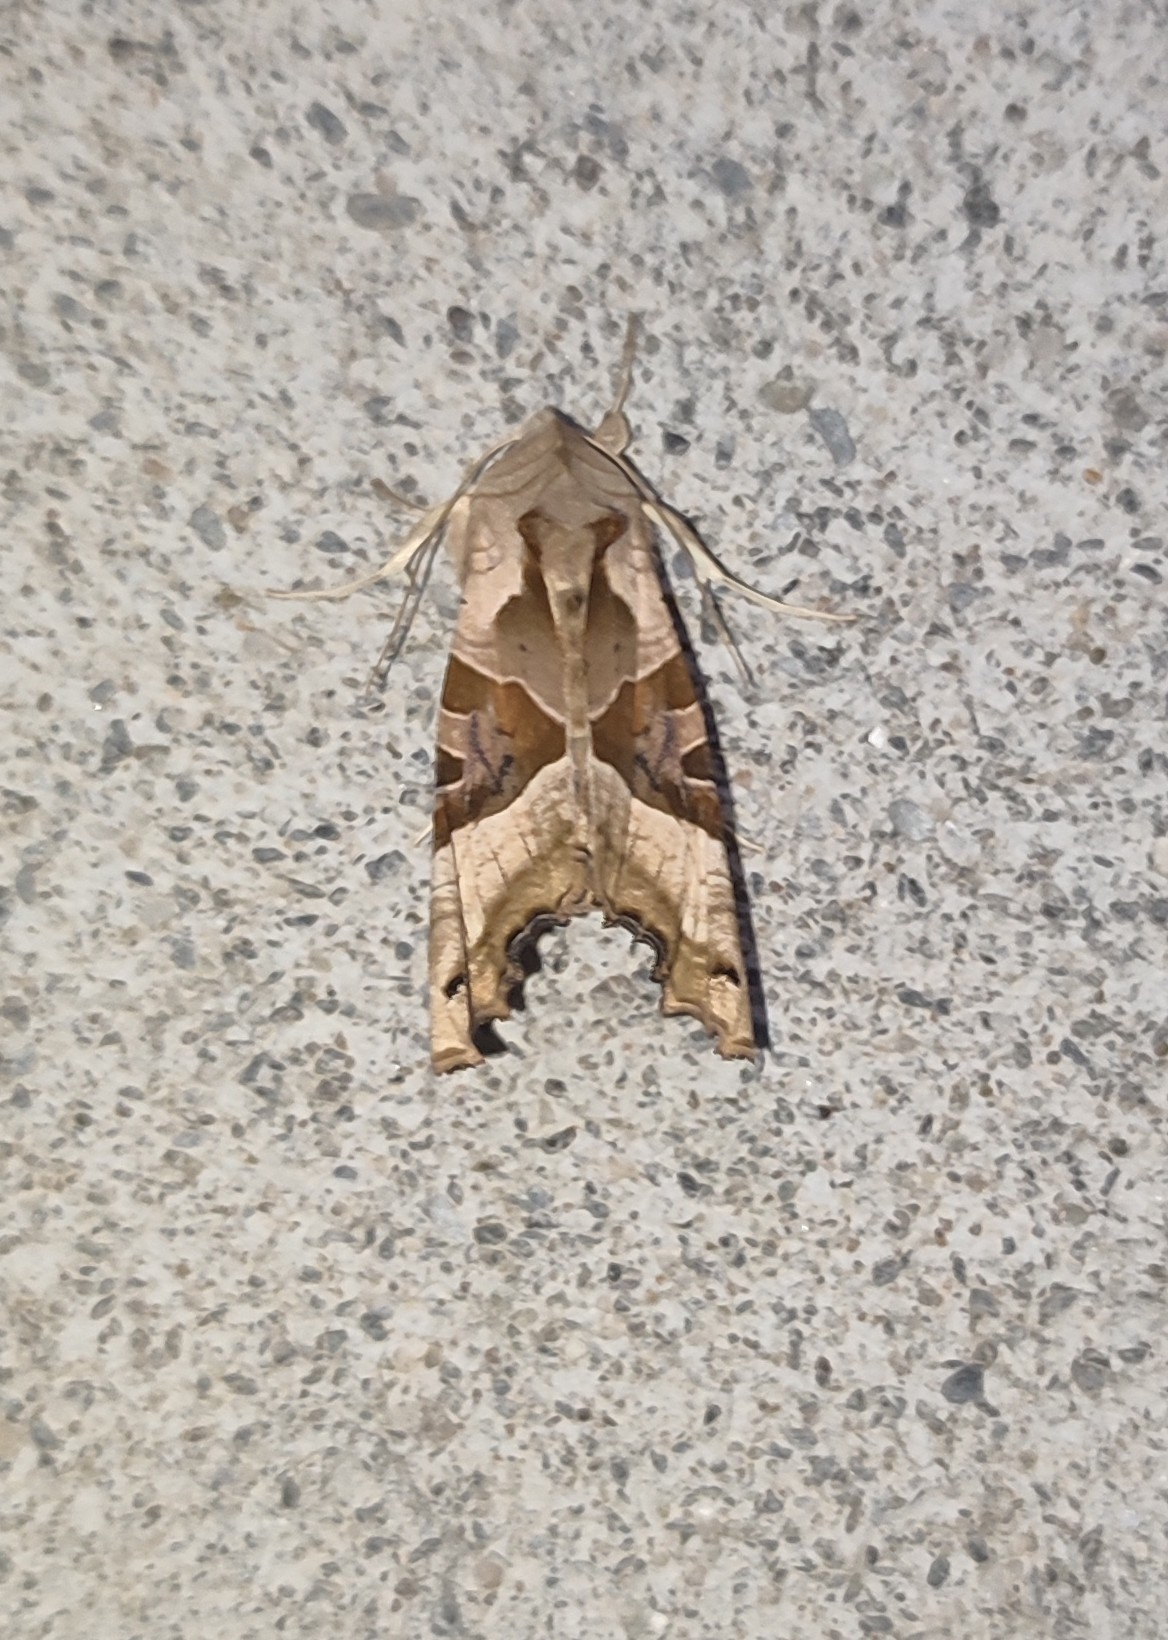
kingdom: Animalia
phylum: Arthropoda
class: Insecta
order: Lepidoptera
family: Noctuidae
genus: Phlogophora
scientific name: Phlogophora meticulosa
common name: Angle shades
